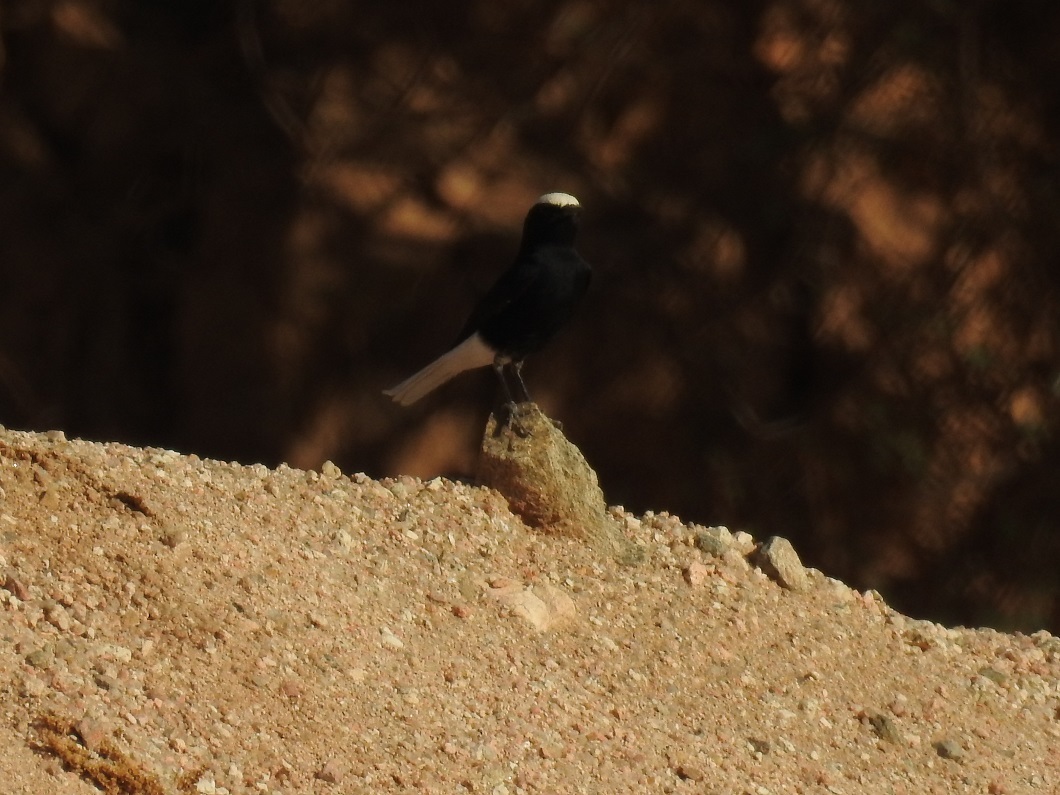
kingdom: Animalia
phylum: Chordata
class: Aves
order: Passeriformes
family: Muscicapidae
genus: Oenanthe
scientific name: Oenanthe leucopyga
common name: White-crowned wheatear
